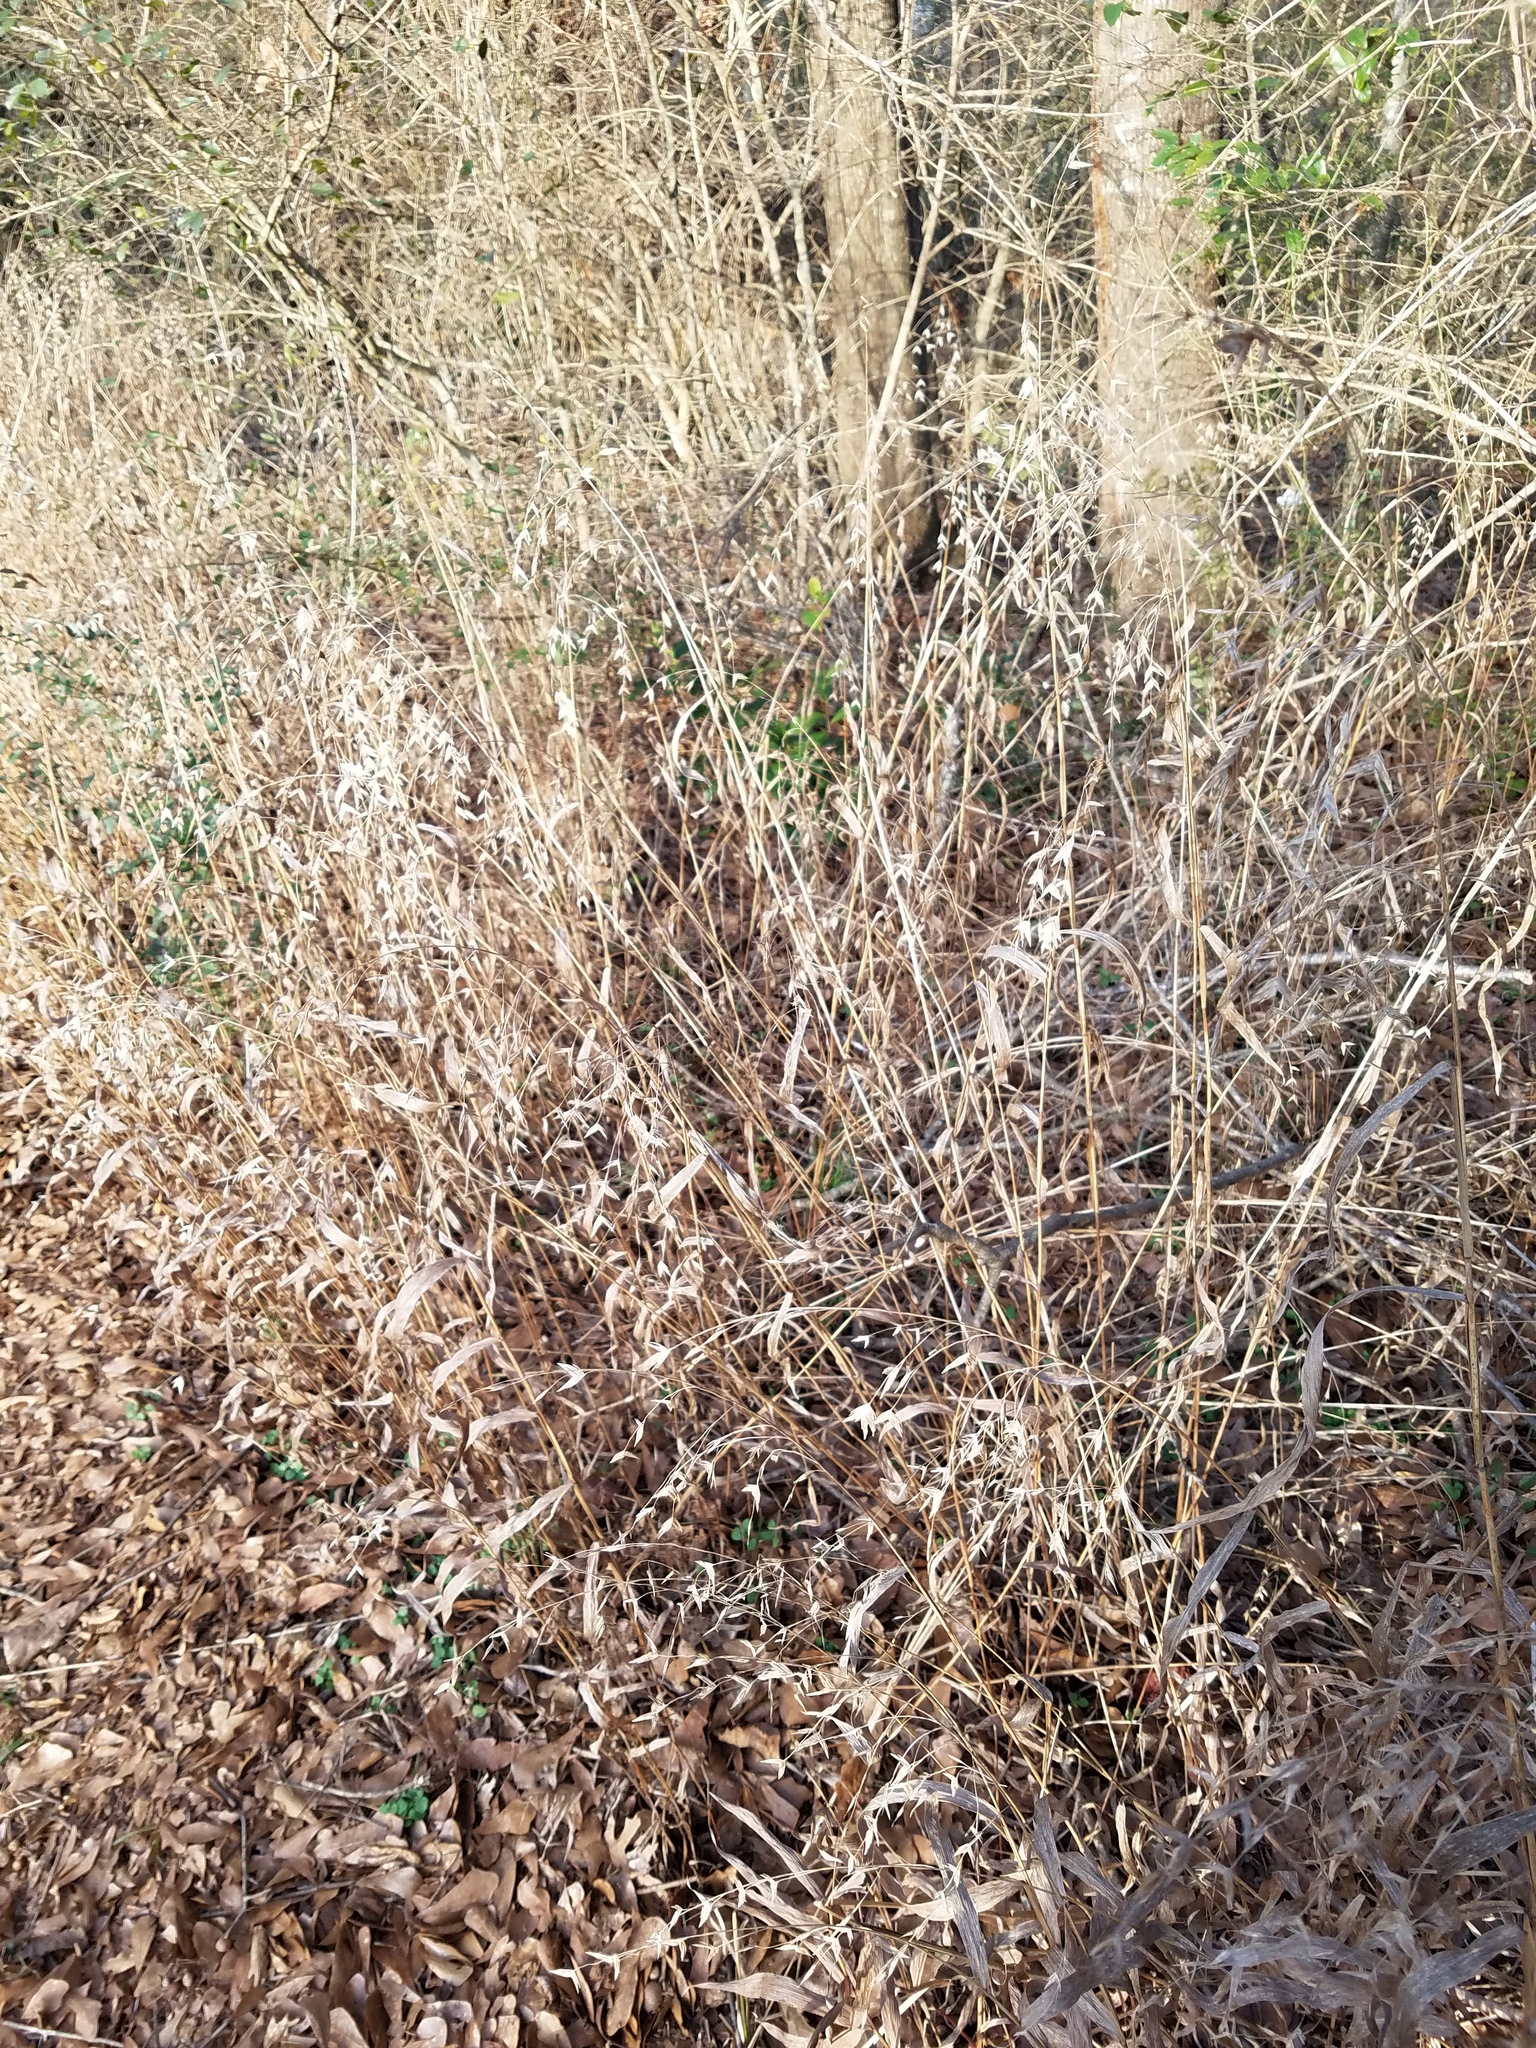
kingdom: Plantae
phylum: Tracheophyta
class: Liliopsida
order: Poales
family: Poaceae
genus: Chasmanthium
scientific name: Chasmanthium latifolium
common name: Broad-leaved chasmanthium
